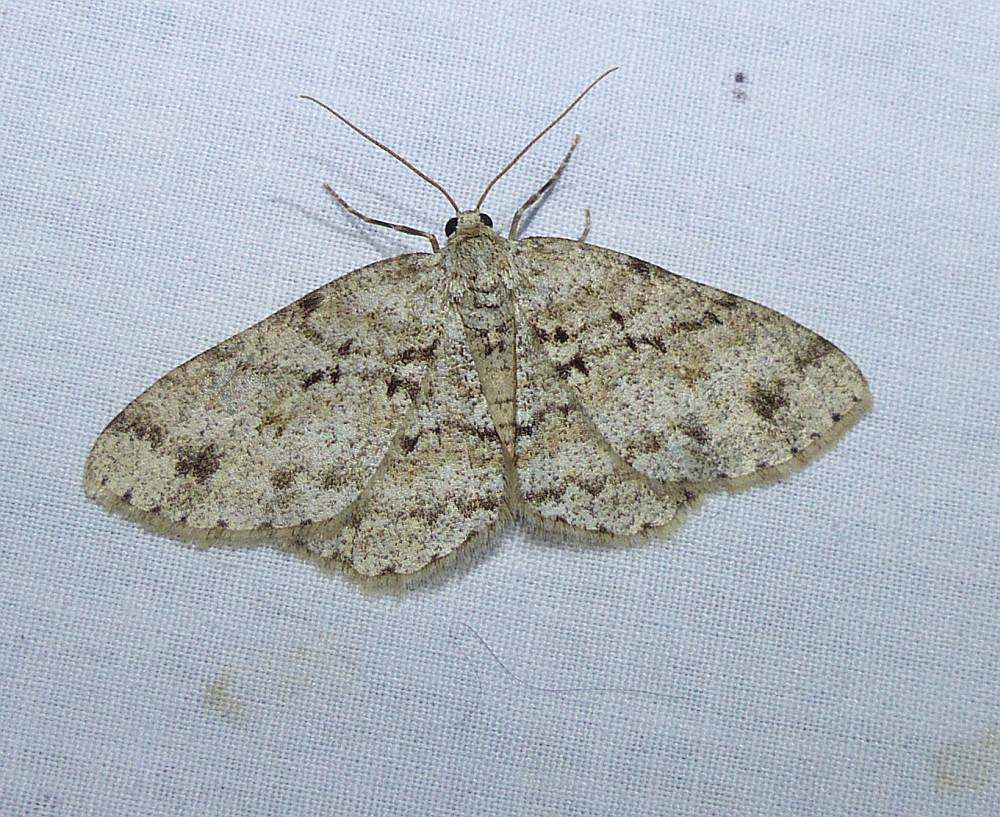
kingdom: Animalia
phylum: Arthropoda
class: Insecta
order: Lepidoptera
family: Geometridae
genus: Ectropis
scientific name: Ectropis crepuscularia
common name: Engrailed
